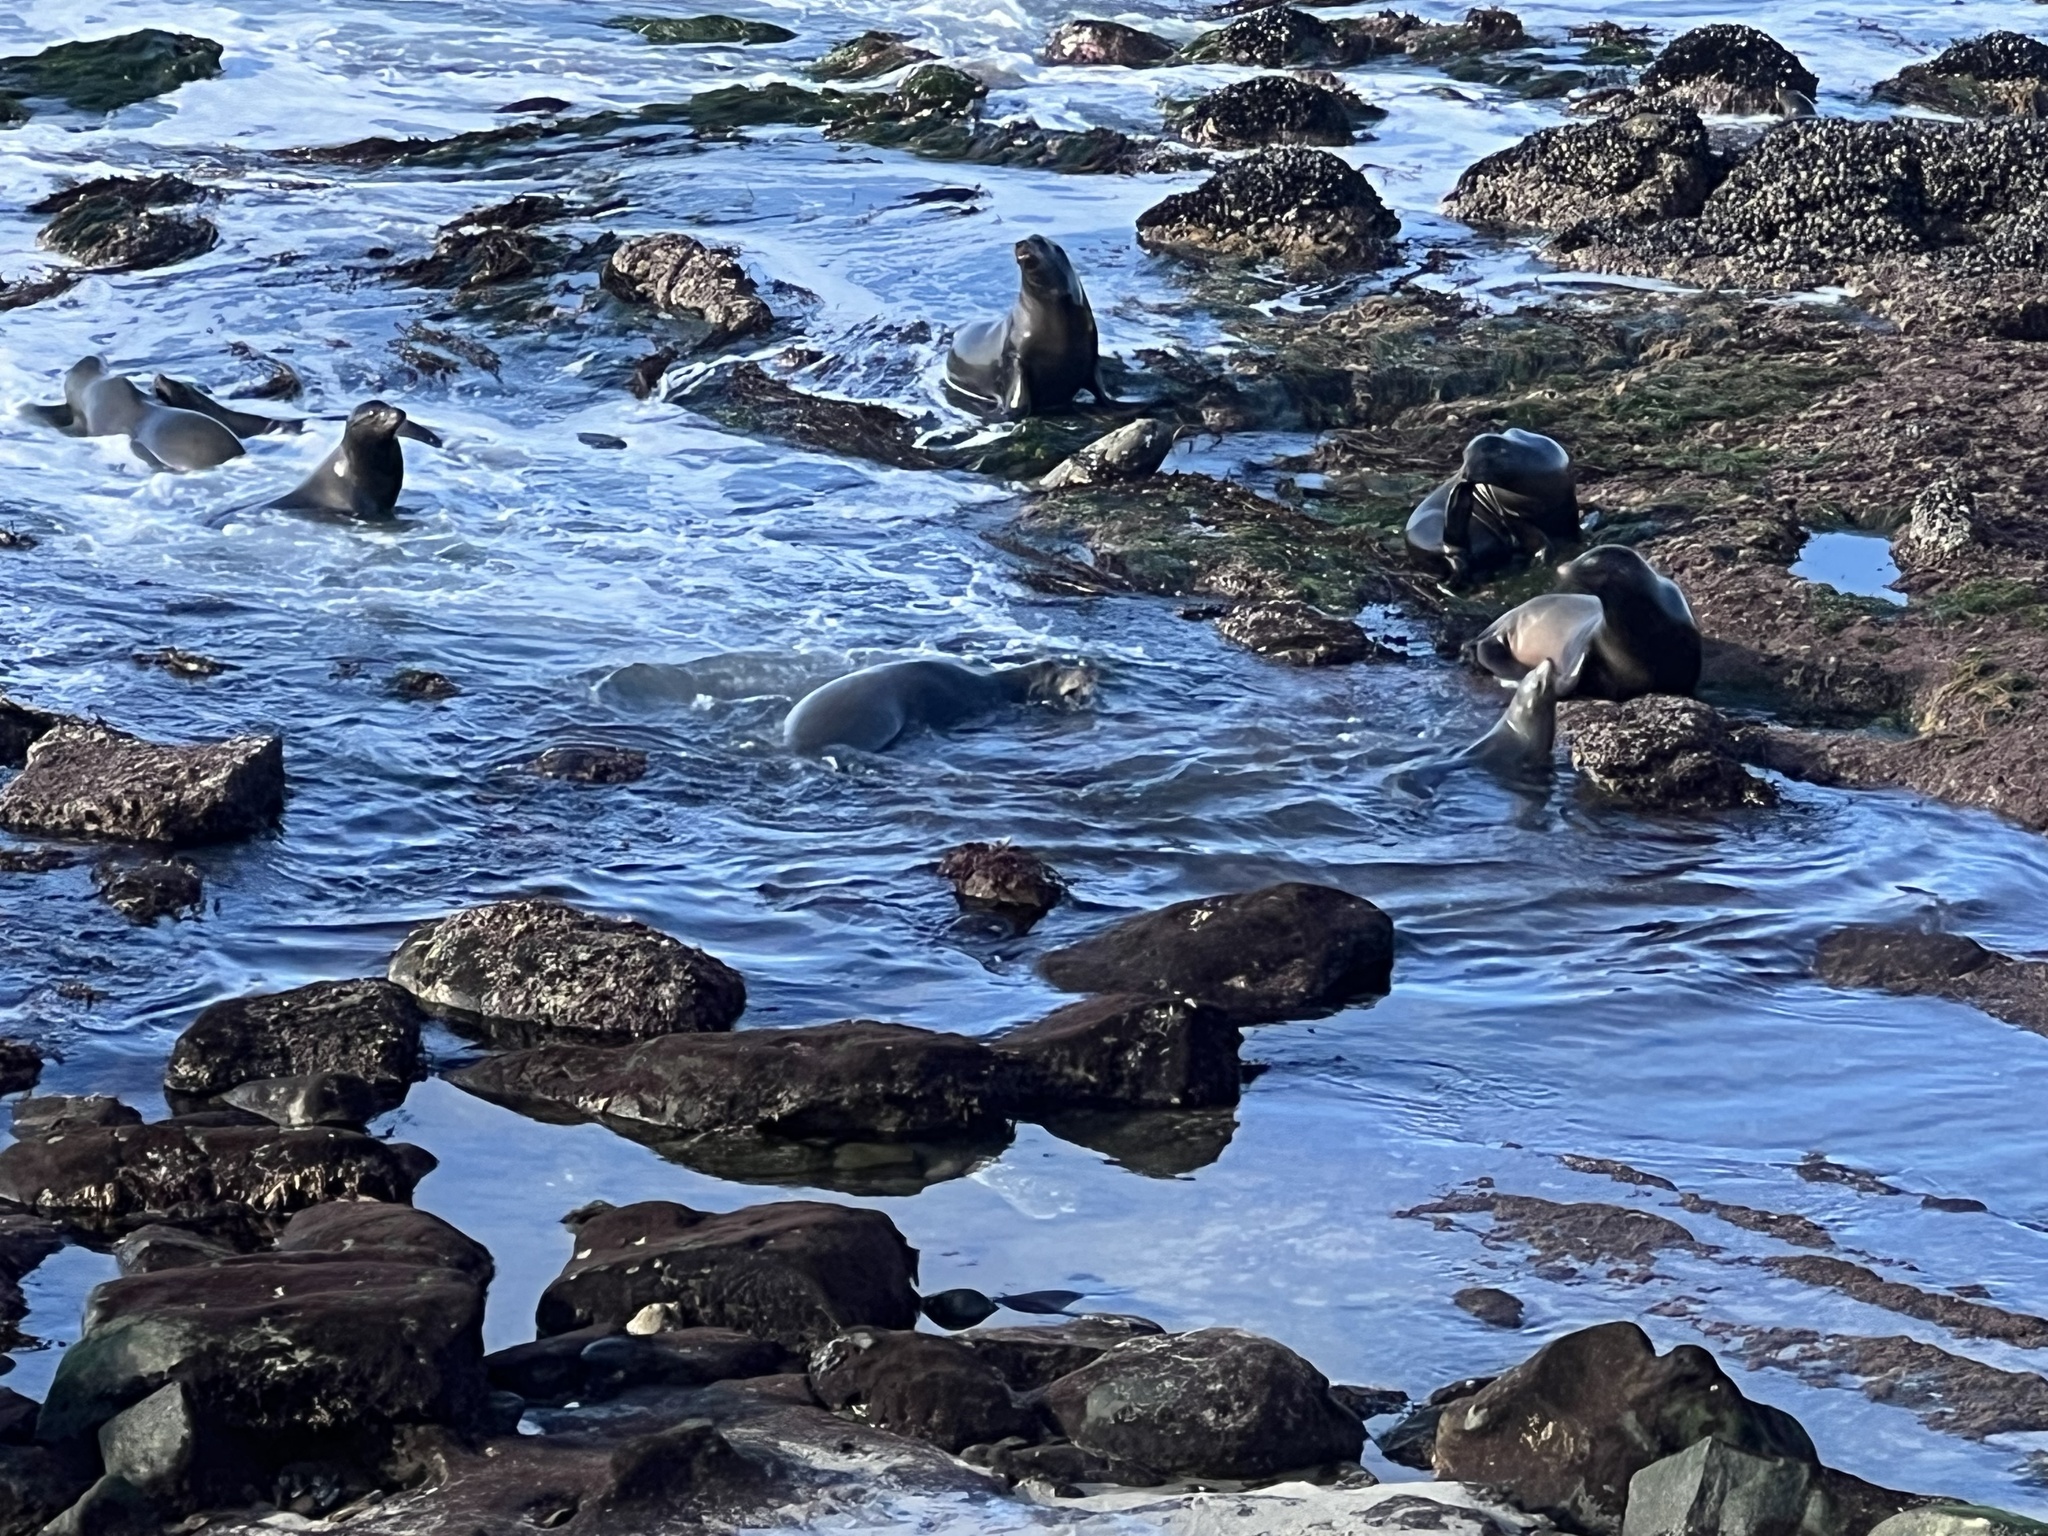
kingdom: Animalia
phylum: Chordata
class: Mammalia
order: Carnivora
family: Otariidae
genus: Zalophus
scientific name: Zalophus californianus
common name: California sea lion
